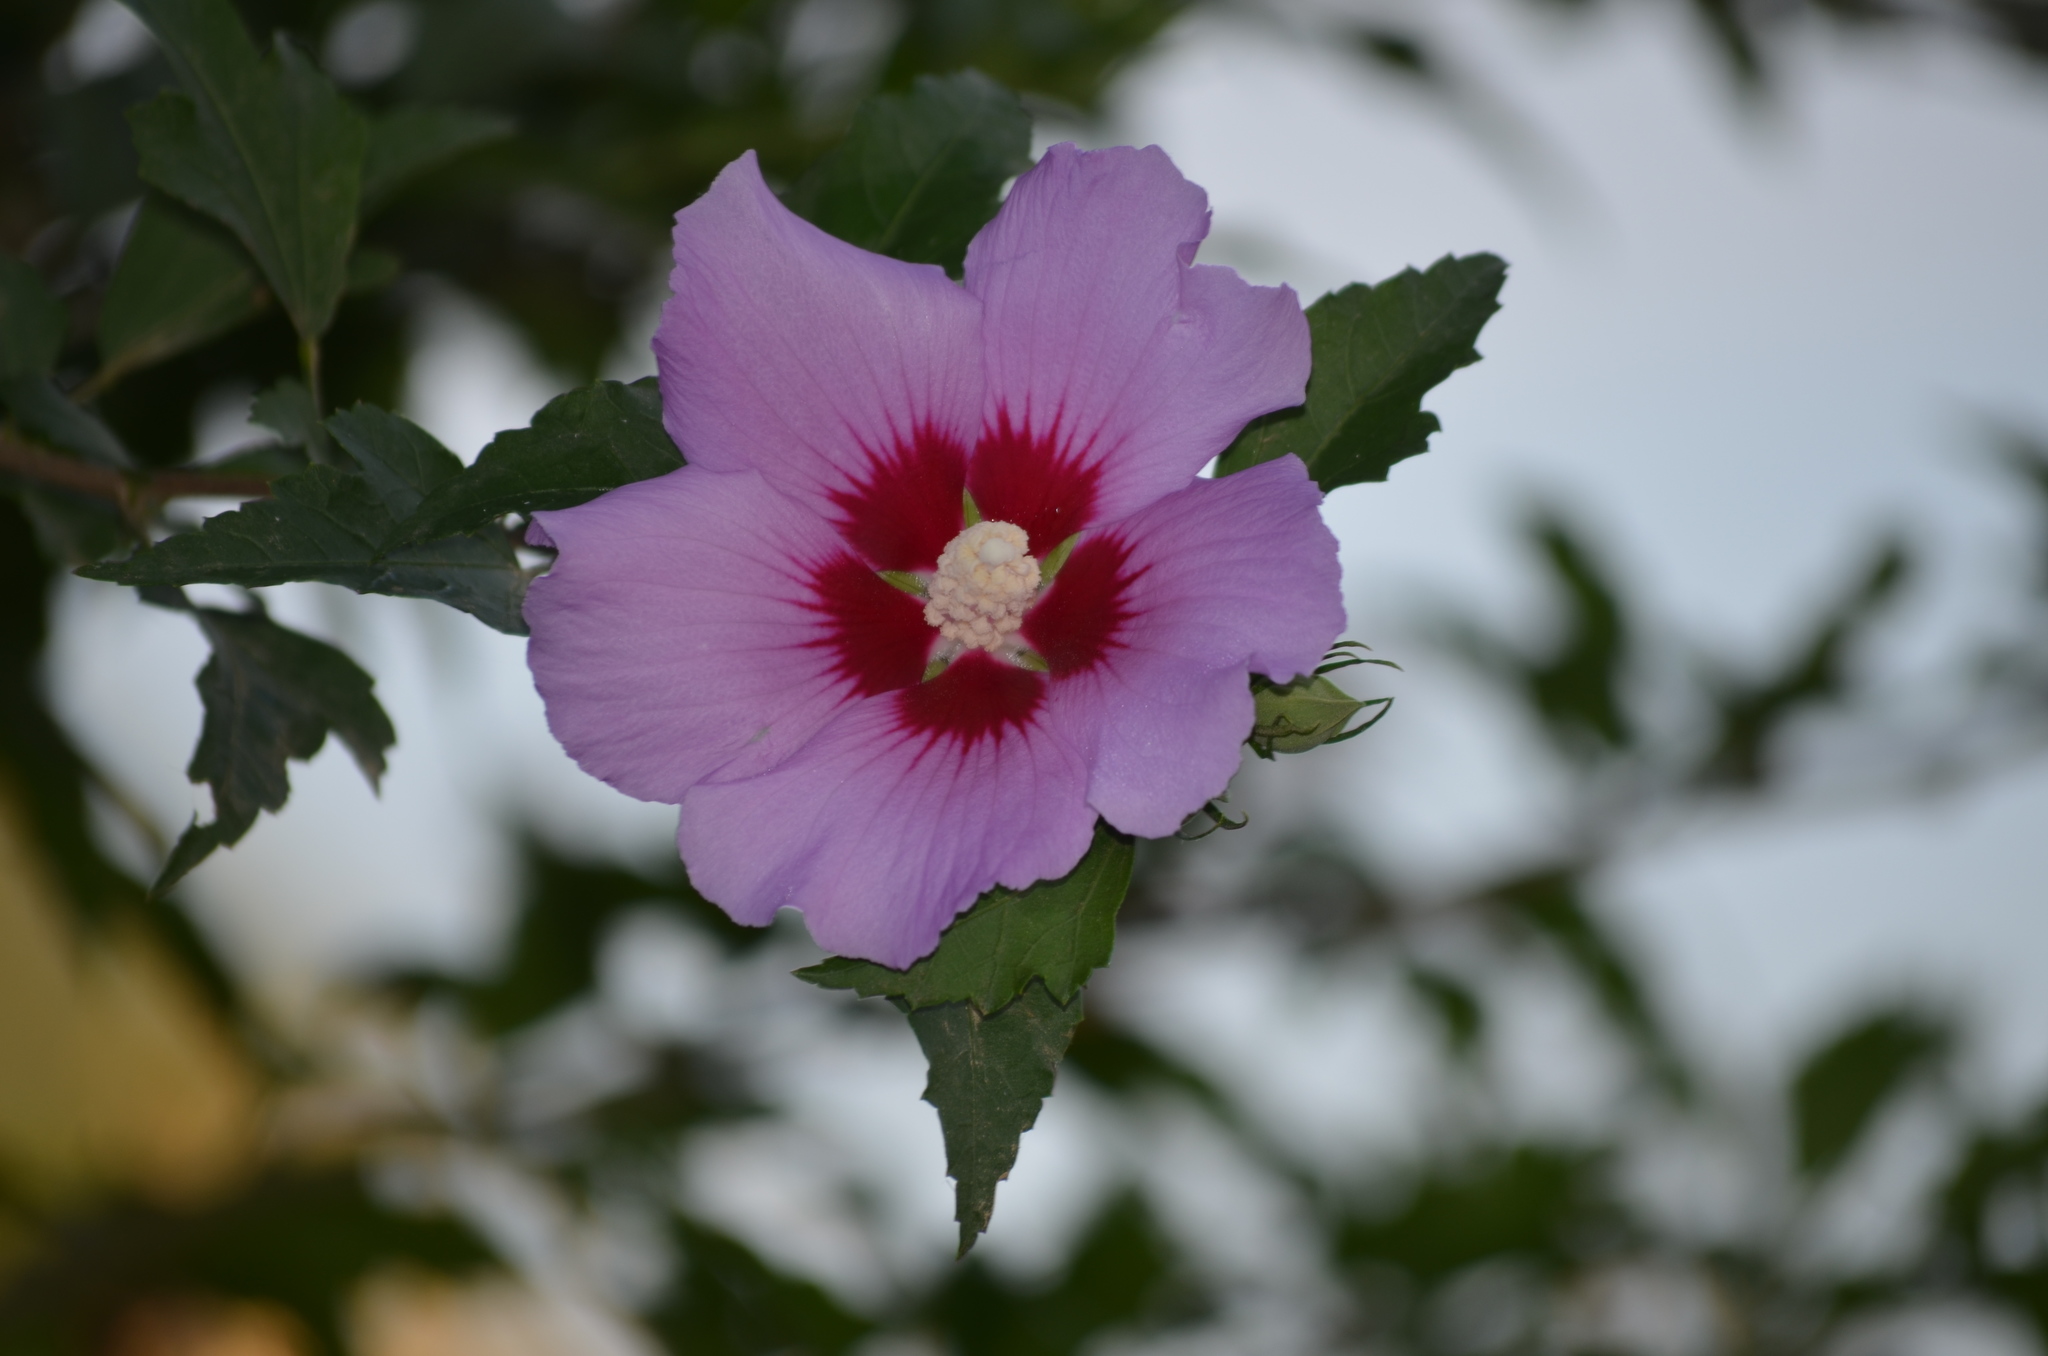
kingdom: Plantae
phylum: Tracheophyta
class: Magnoliopsida
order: Malvales
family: Malvaceae
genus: Hibiscus
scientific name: Hibiscus syriacus
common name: Syrian ketmia
